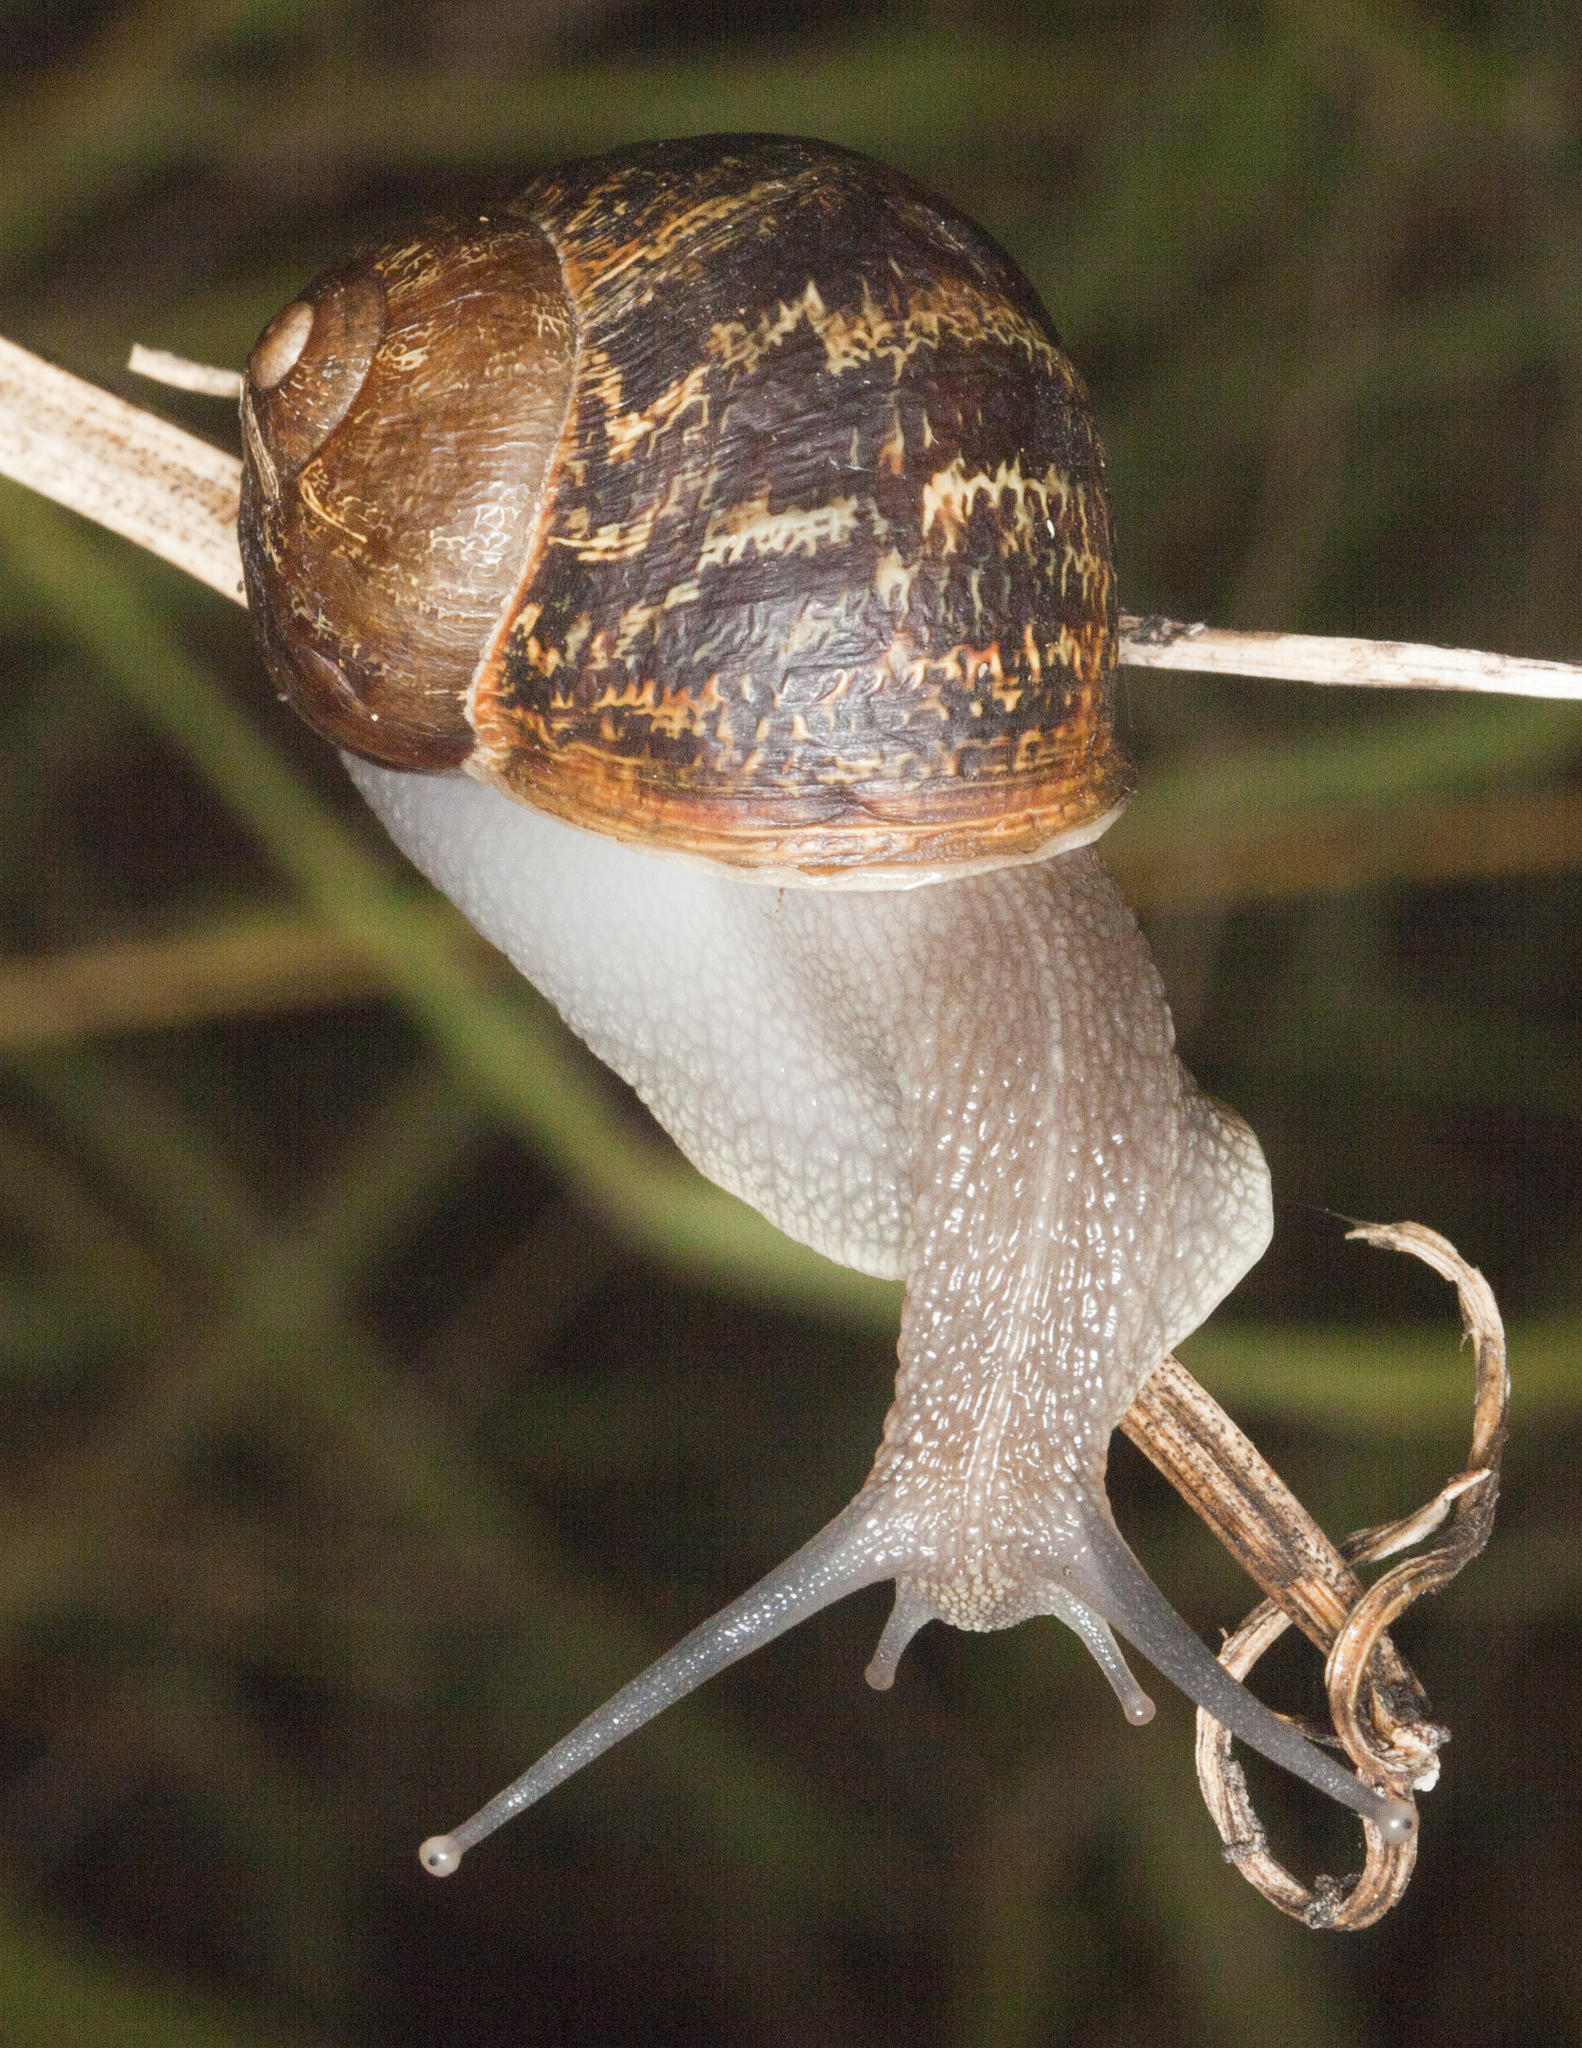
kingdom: Animalia
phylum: Mollusca
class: Gastropoda
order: Stylommatophora
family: Helicidae
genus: Cornu
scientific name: Cornu aspersum
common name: Brown garden snail
